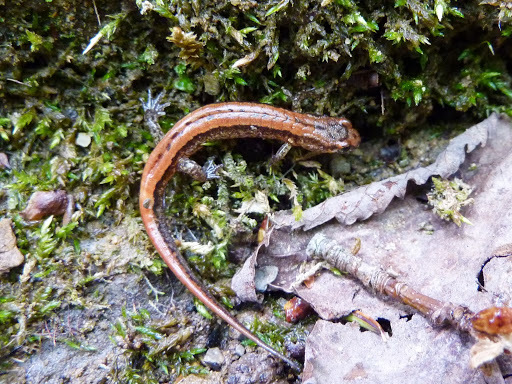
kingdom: Animalia
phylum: Chordata
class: Amphibia
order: Caudata
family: Plethodontidae
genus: Desmognathus
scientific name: Desmognathus ochrophaeus
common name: Allegheny mountain dusky salamander
